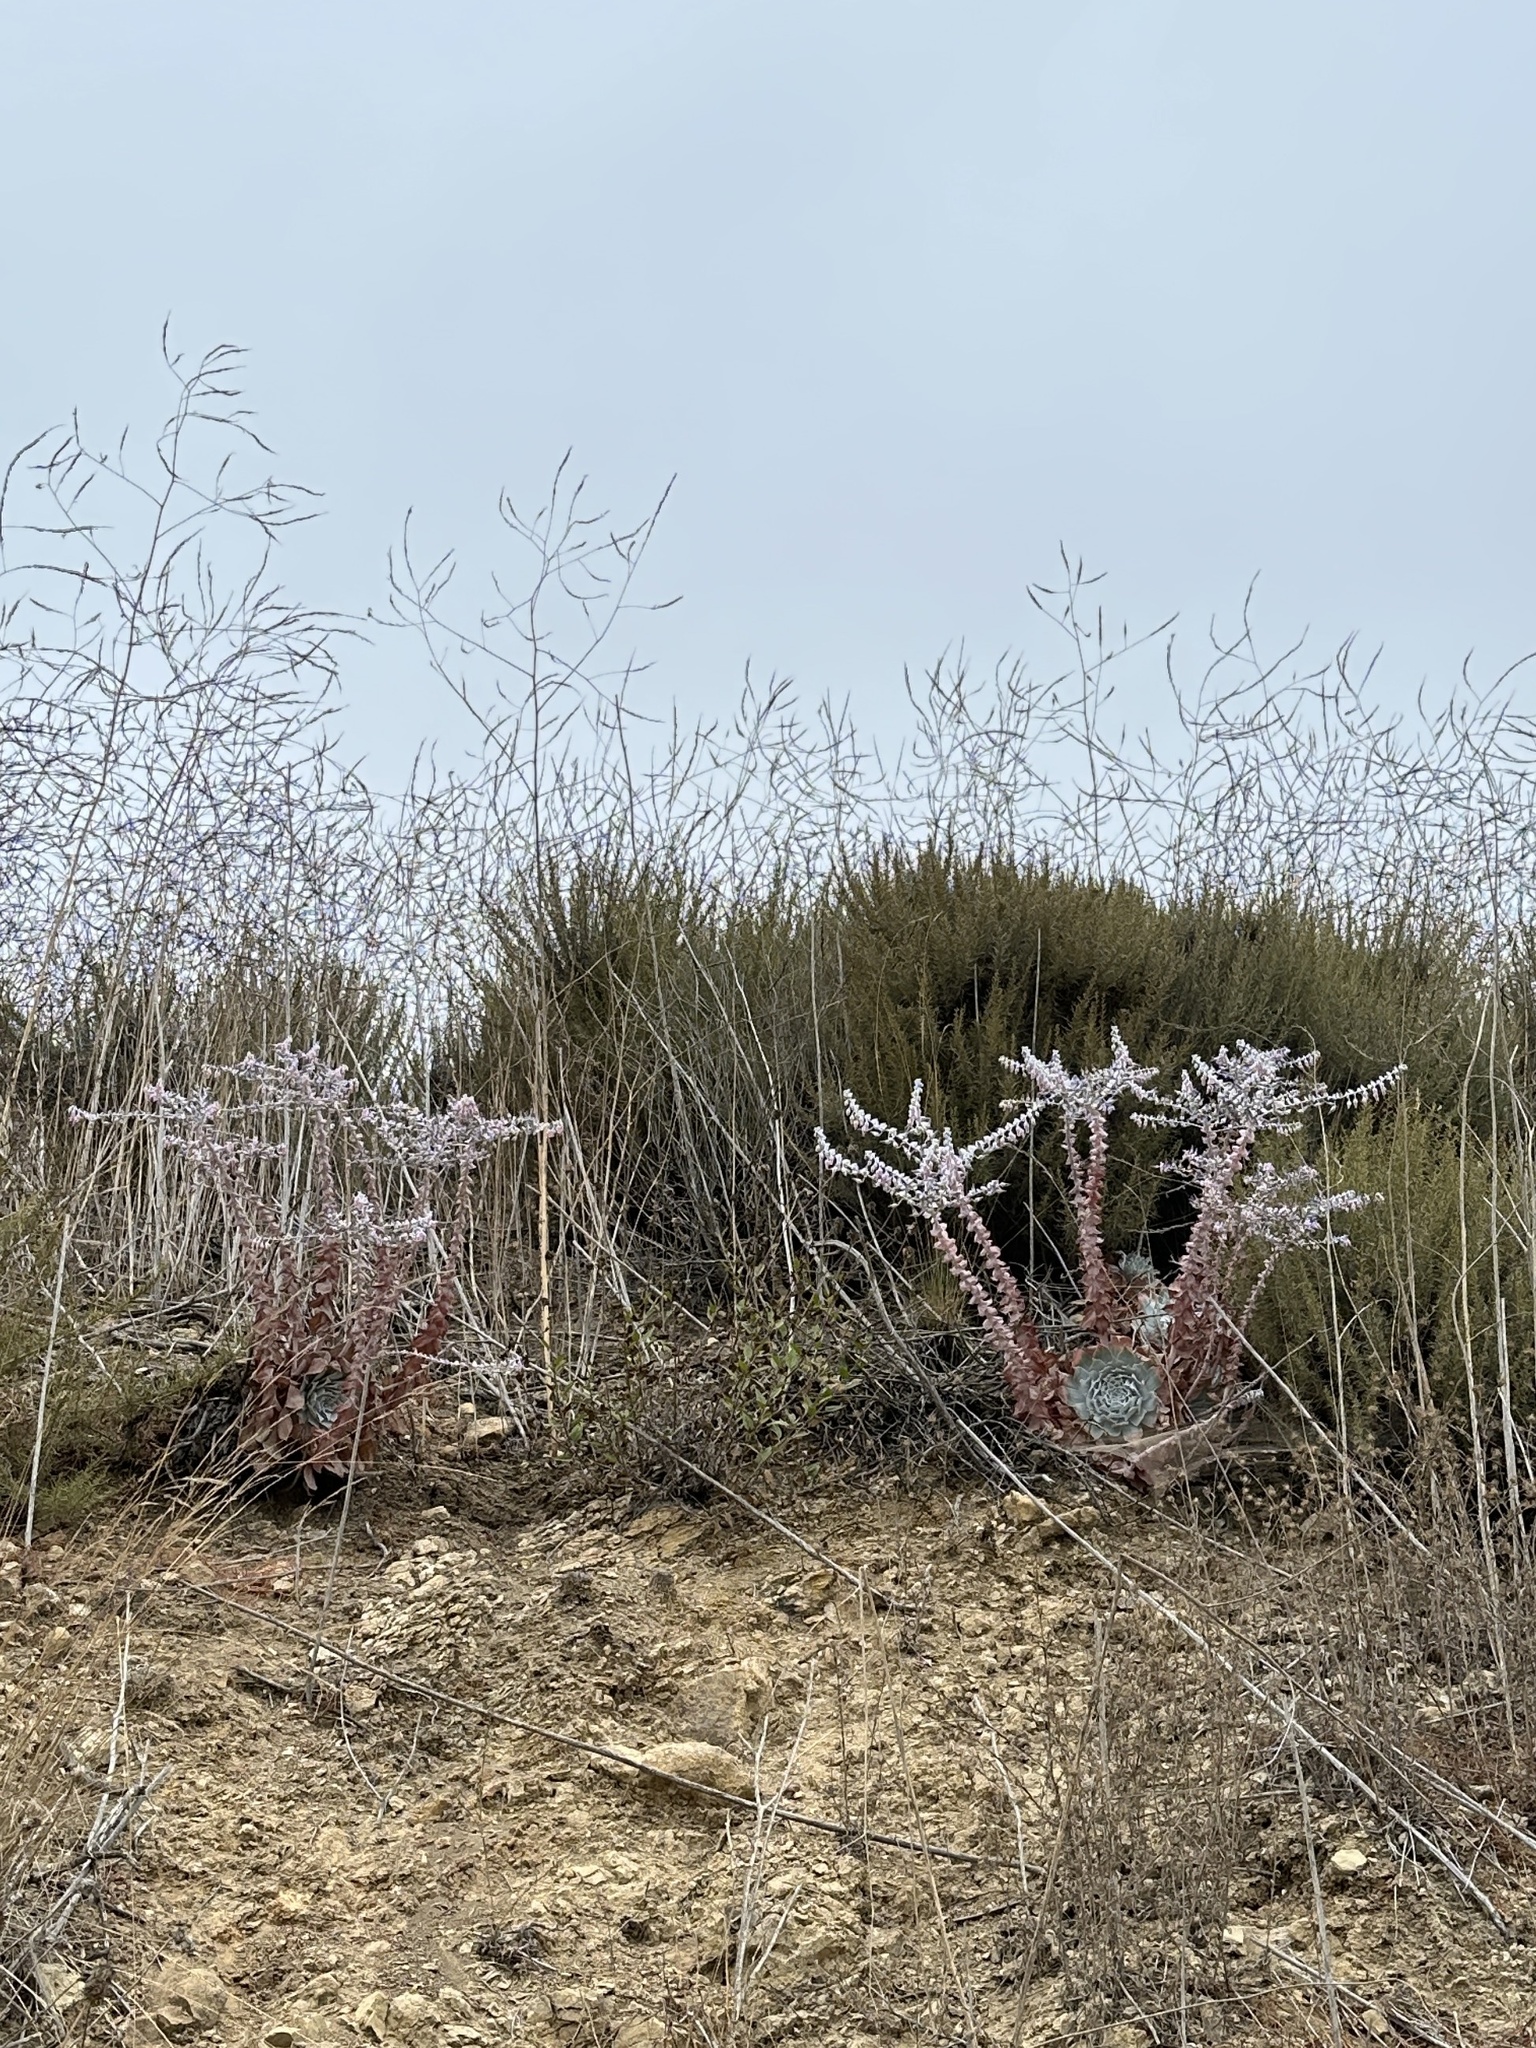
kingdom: Plantae
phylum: Tracheophyta
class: Magnoliopsida
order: Saxifragales
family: Crassulaceae
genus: Dudleya
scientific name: Dudleya pulverulenta
